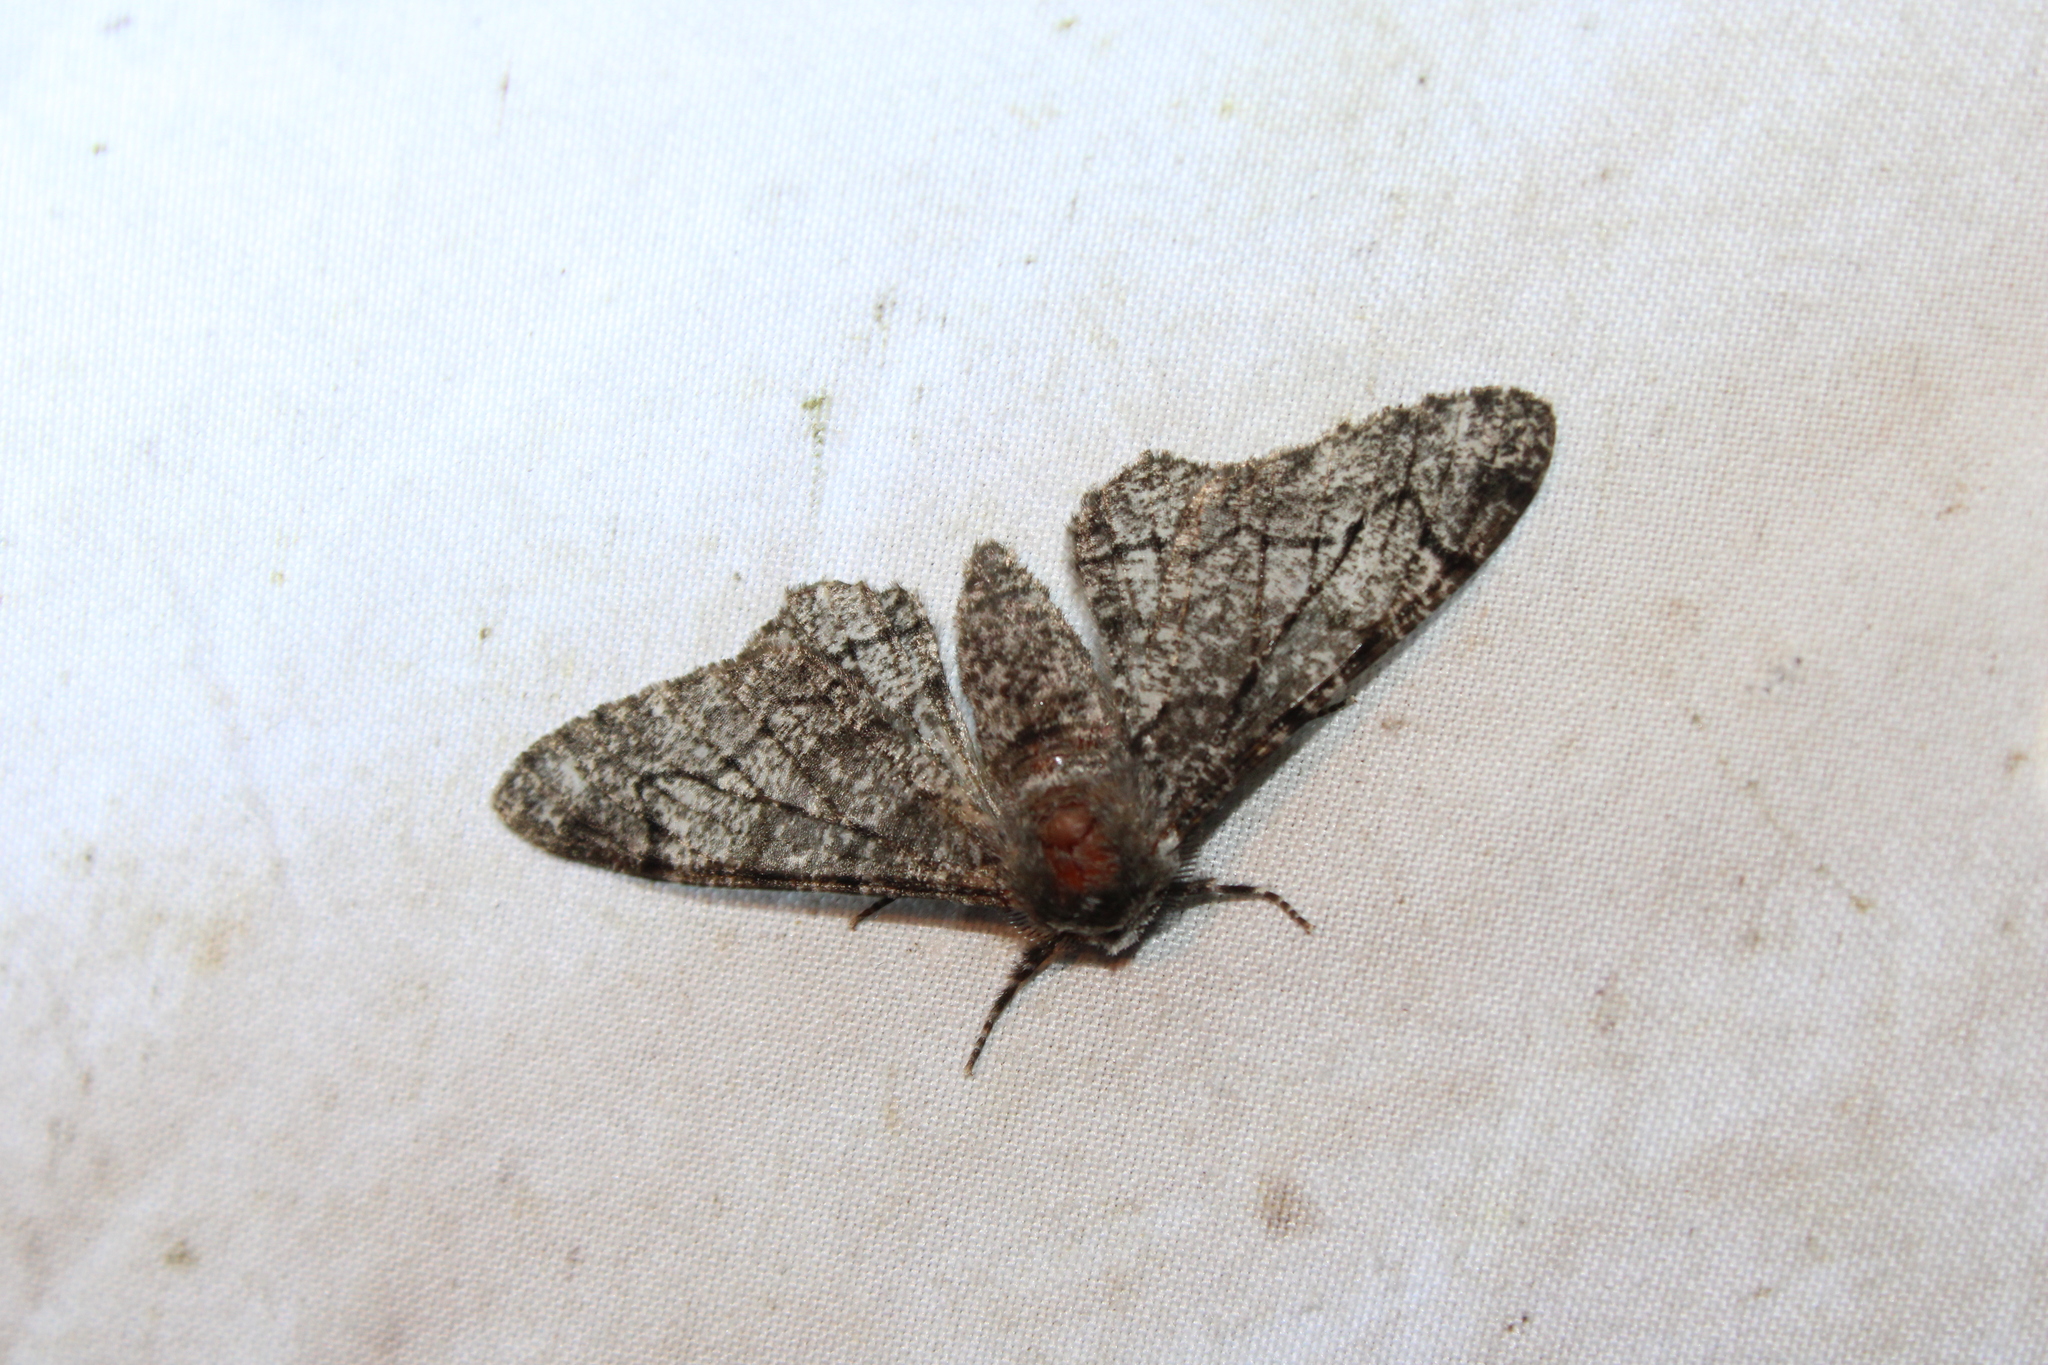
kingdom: Animalia
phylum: Arthropoda
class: Insecta
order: Lepidoptera
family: Geometridae
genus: Biston
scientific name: Biston betularia
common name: Peppered moth
